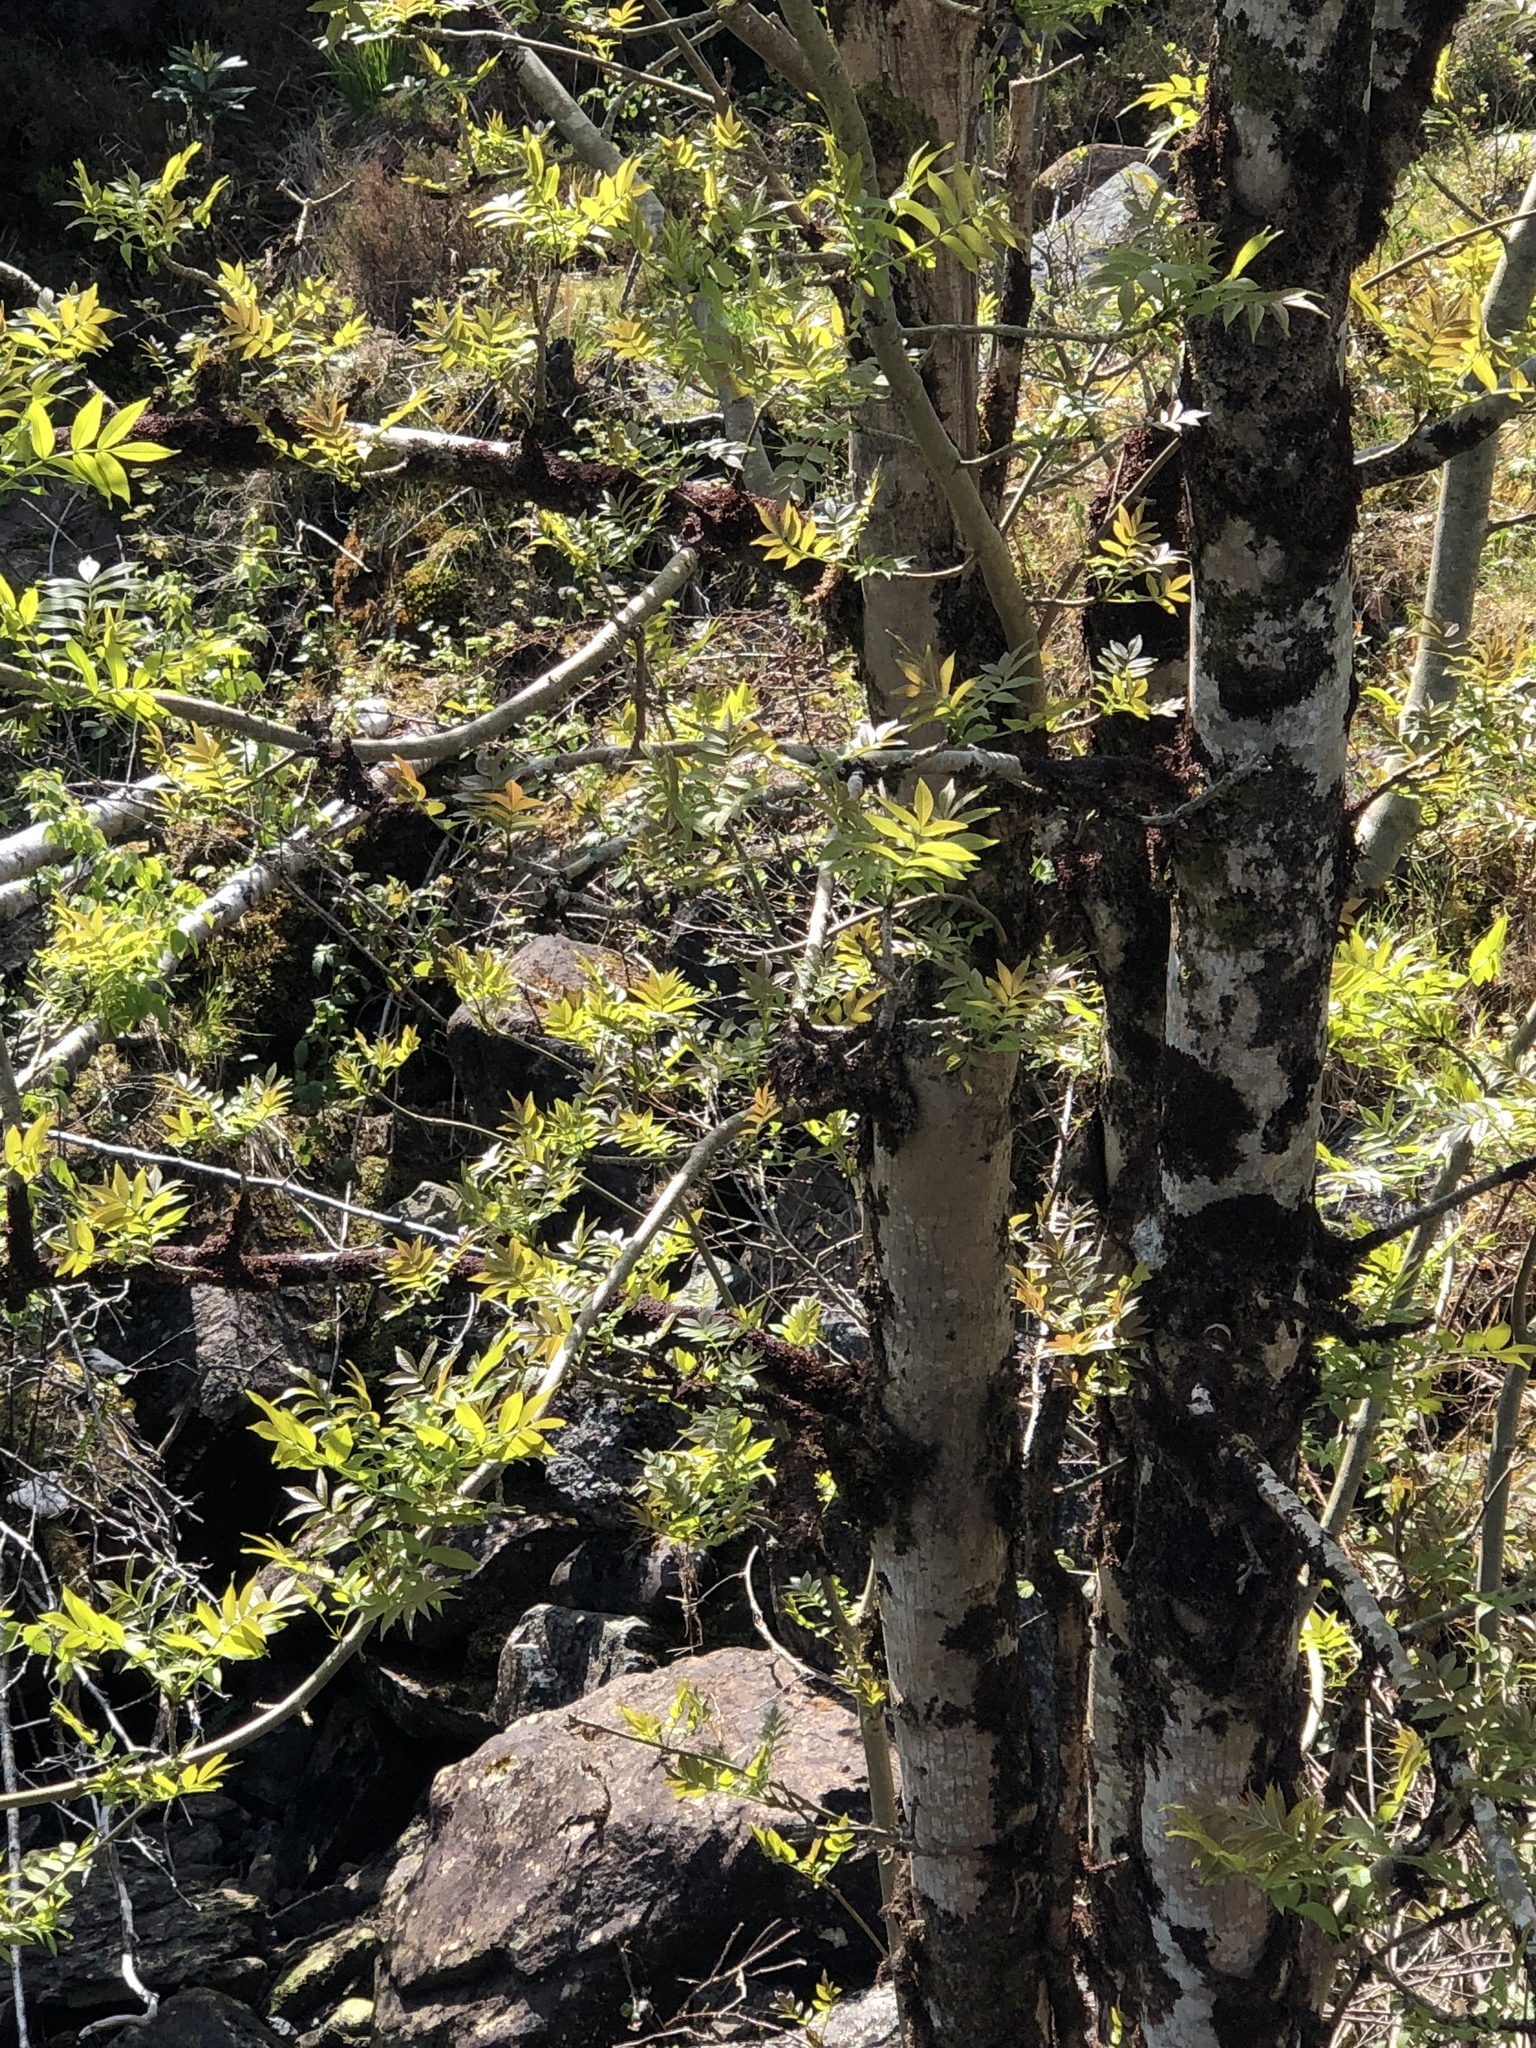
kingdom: Plantae
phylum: Tracheophyta
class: Magnoliopsida
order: Lamiales
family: Oleaceae
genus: Fraxinus
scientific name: Fraxinus excelsior
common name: European ash
